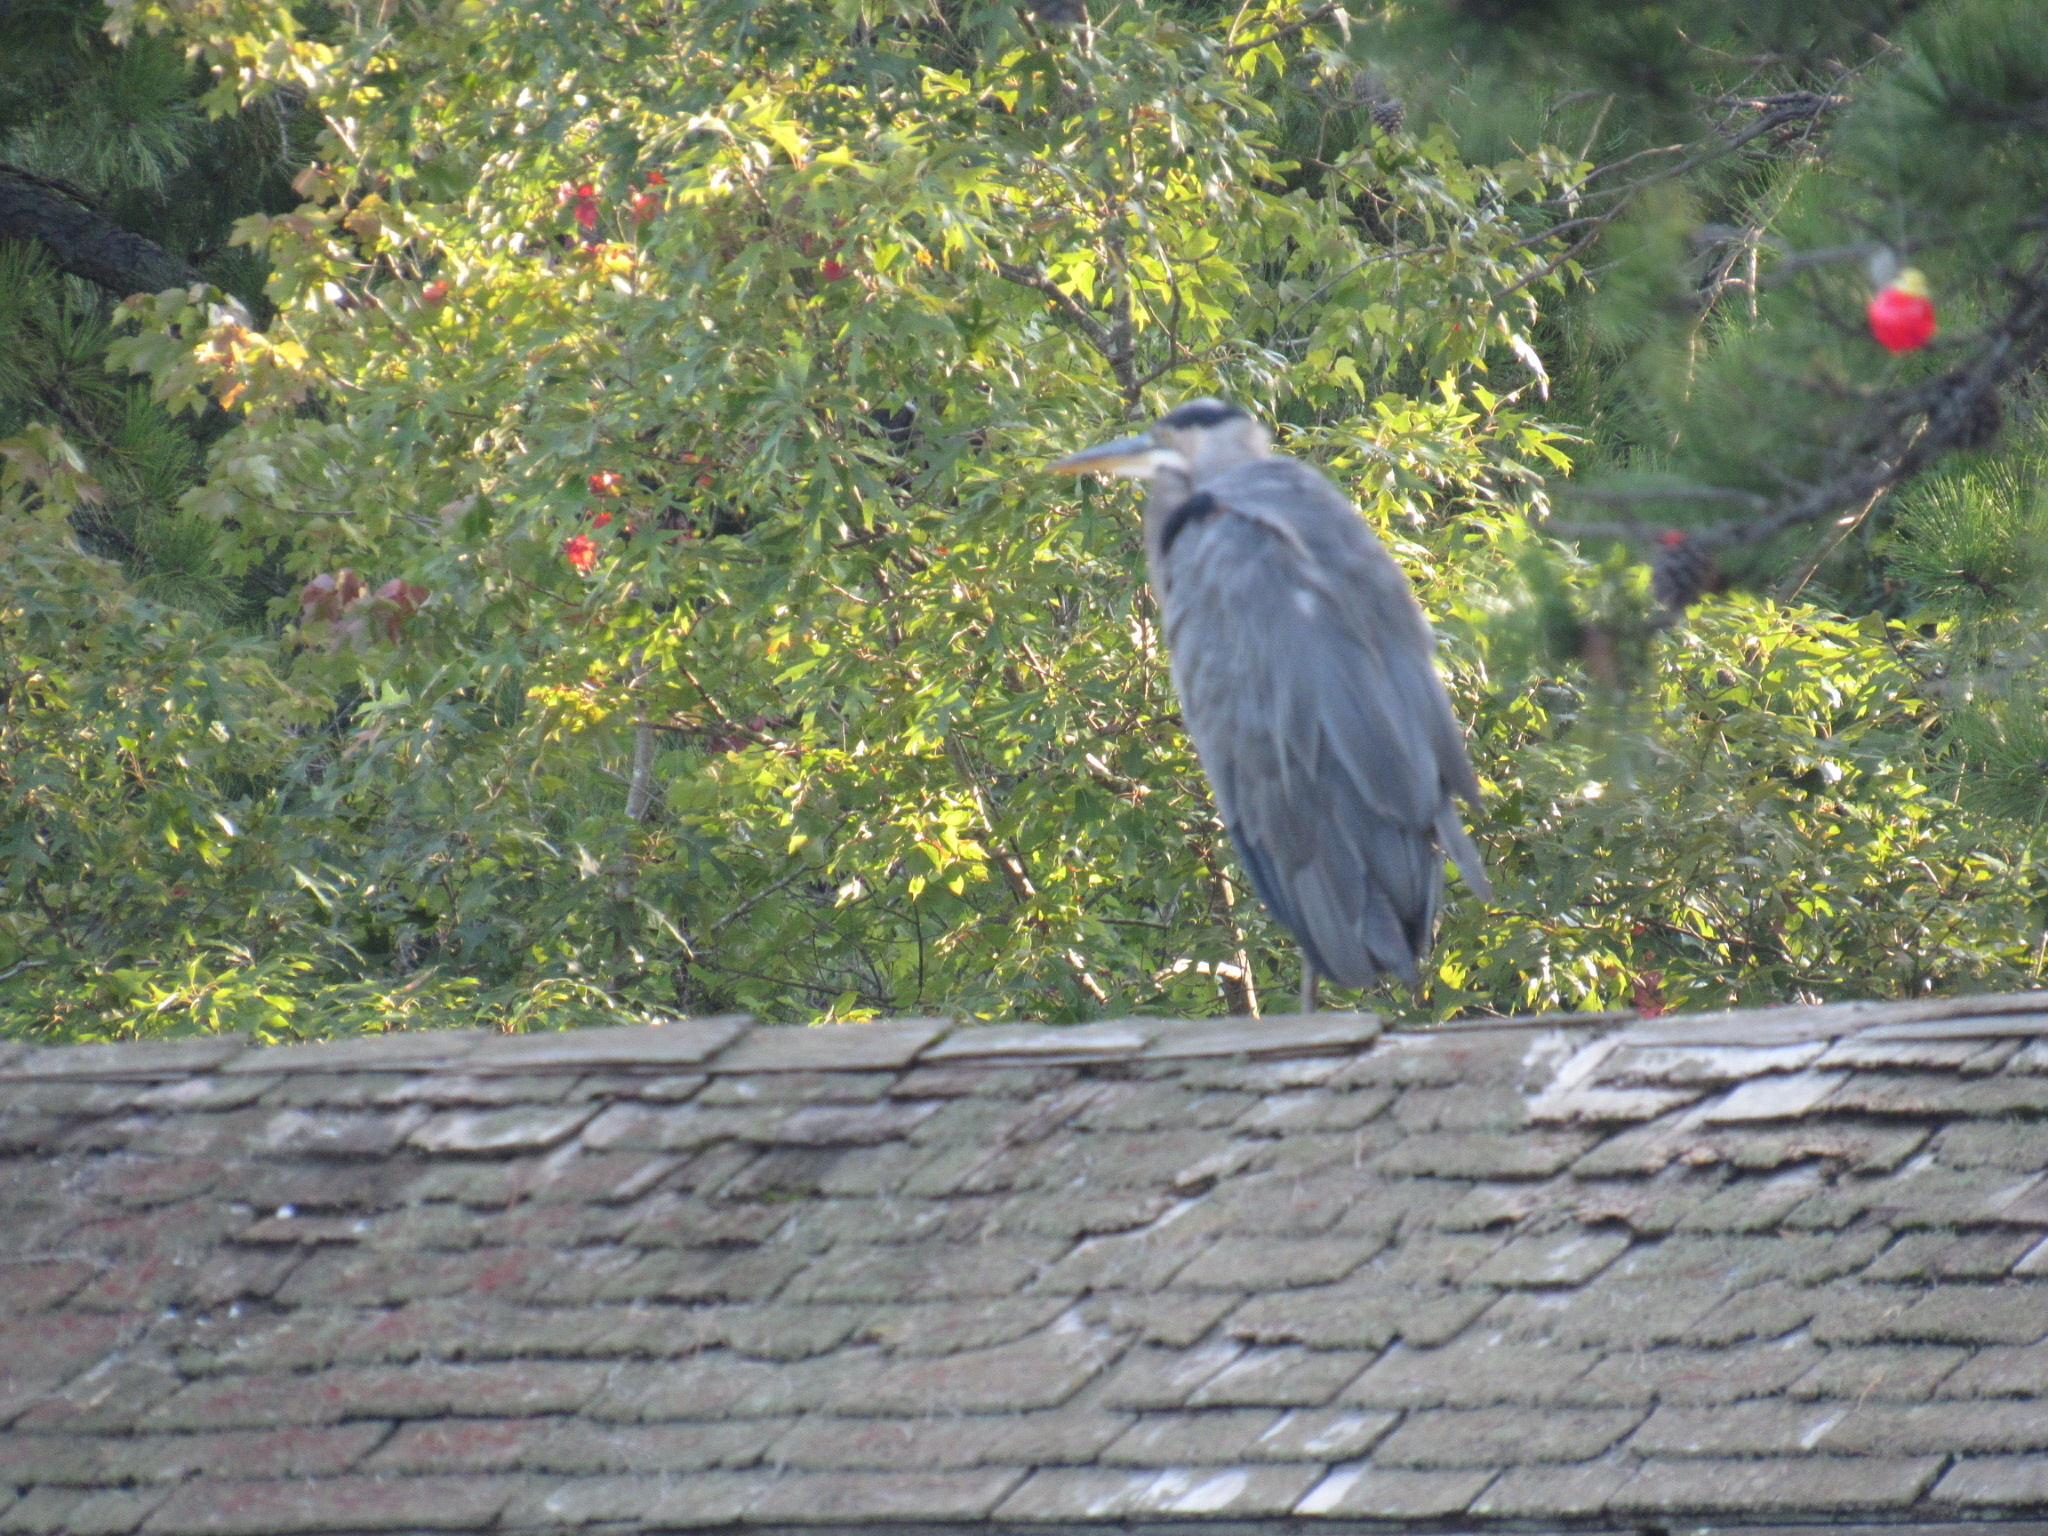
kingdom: Animalia
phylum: Chordata
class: Aves
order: Pelecaniformes
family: Ardeidae
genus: Ardea
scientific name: Ardea herodias
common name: Great blue heron
